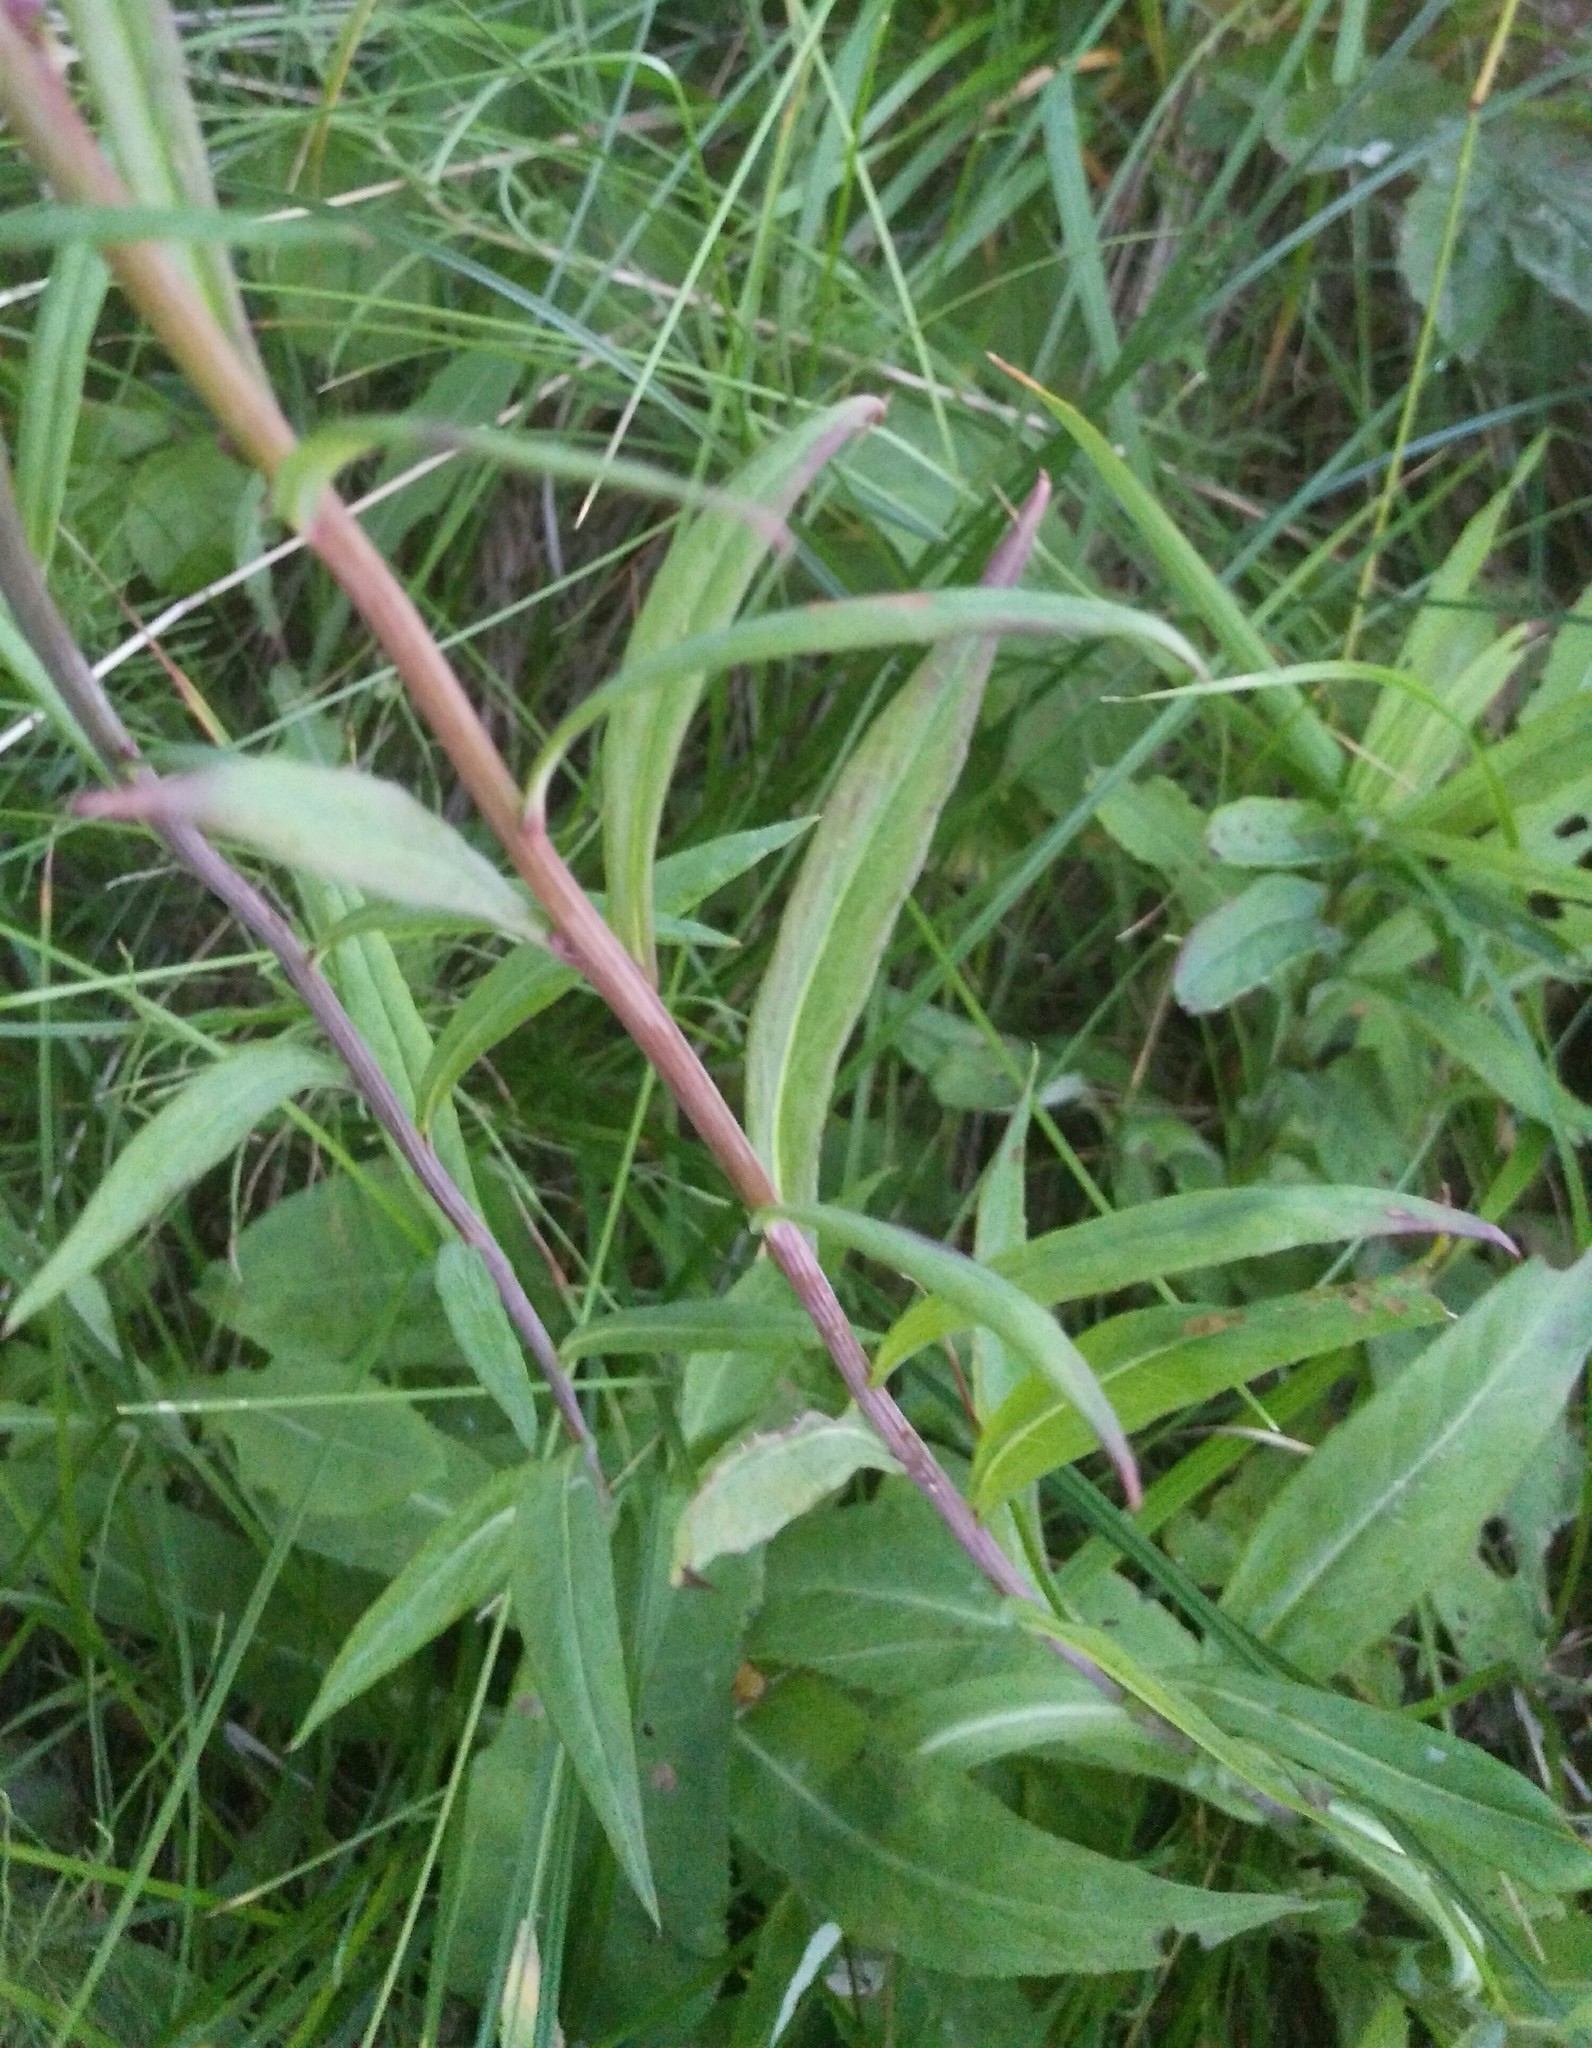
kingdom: Plantae
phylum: Tracheophyta
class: Magnoliopsida
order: Asterales
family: Asteraceae
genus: Saussurea
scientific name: Saussurea parviflora
